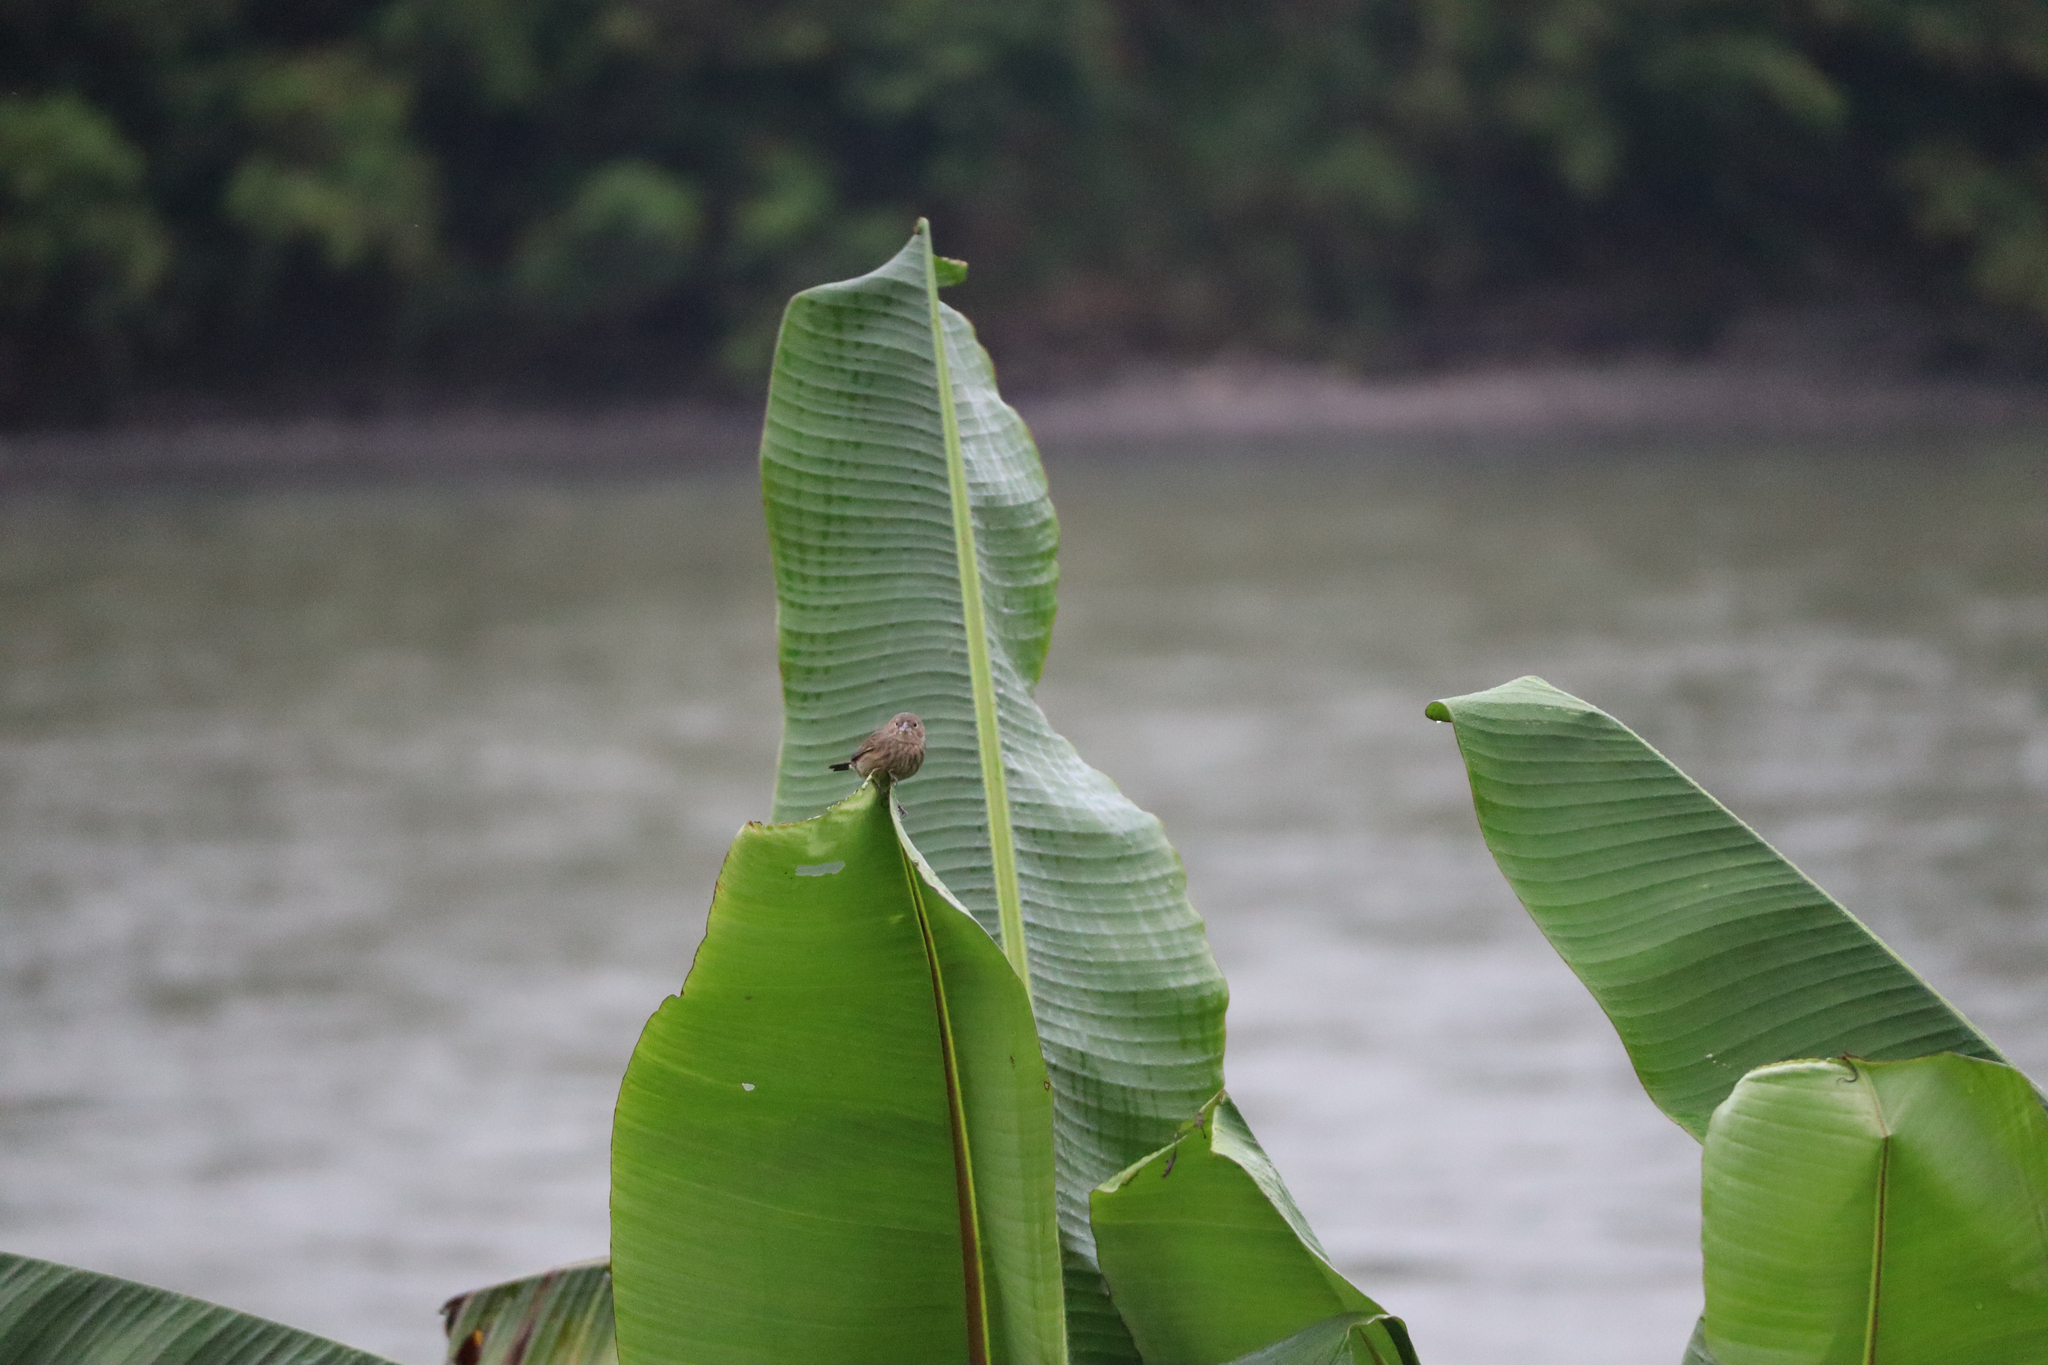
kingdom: Animalia
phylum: Chordata
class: Aves
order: Passeriformes
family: Thraupidae
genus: Volatinia
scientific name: Volatinia jacarina
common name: Blue-black grassquit
